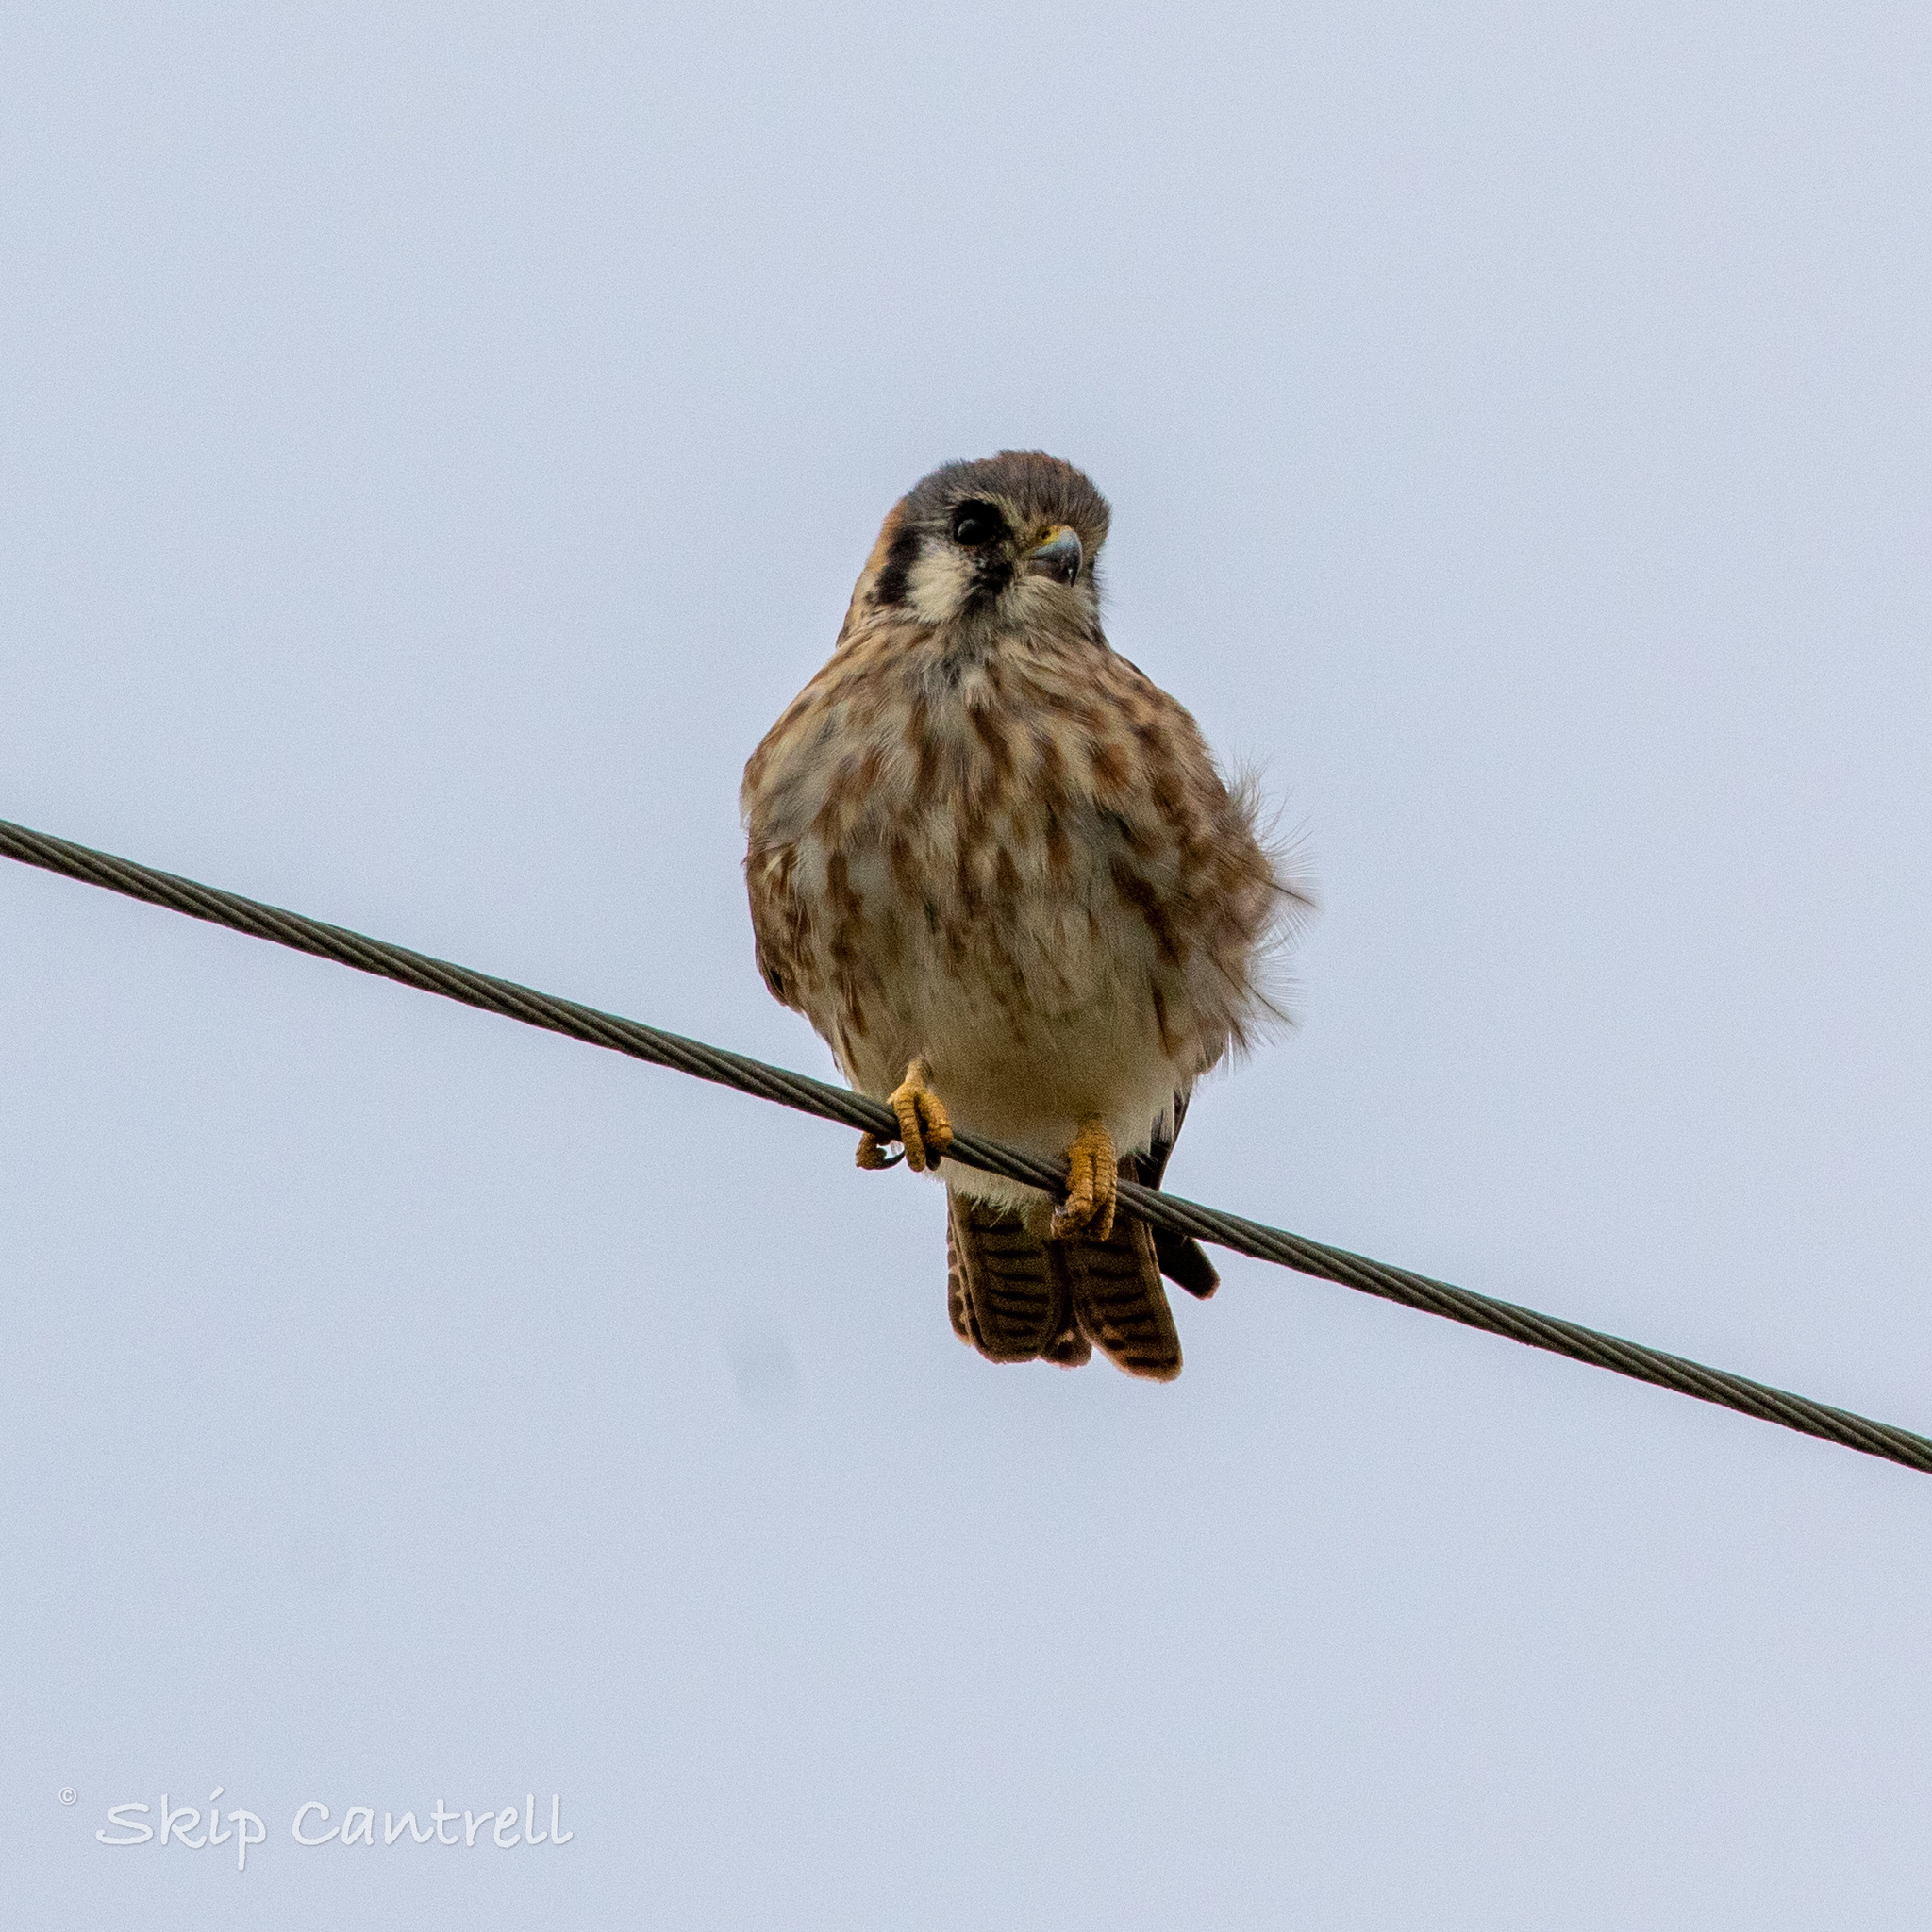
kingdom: Animalia
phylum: Chordata
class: Aves
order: Falconiformes
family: Falconidae
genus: Falco
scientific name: Falco sparverius
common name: American kestrel
